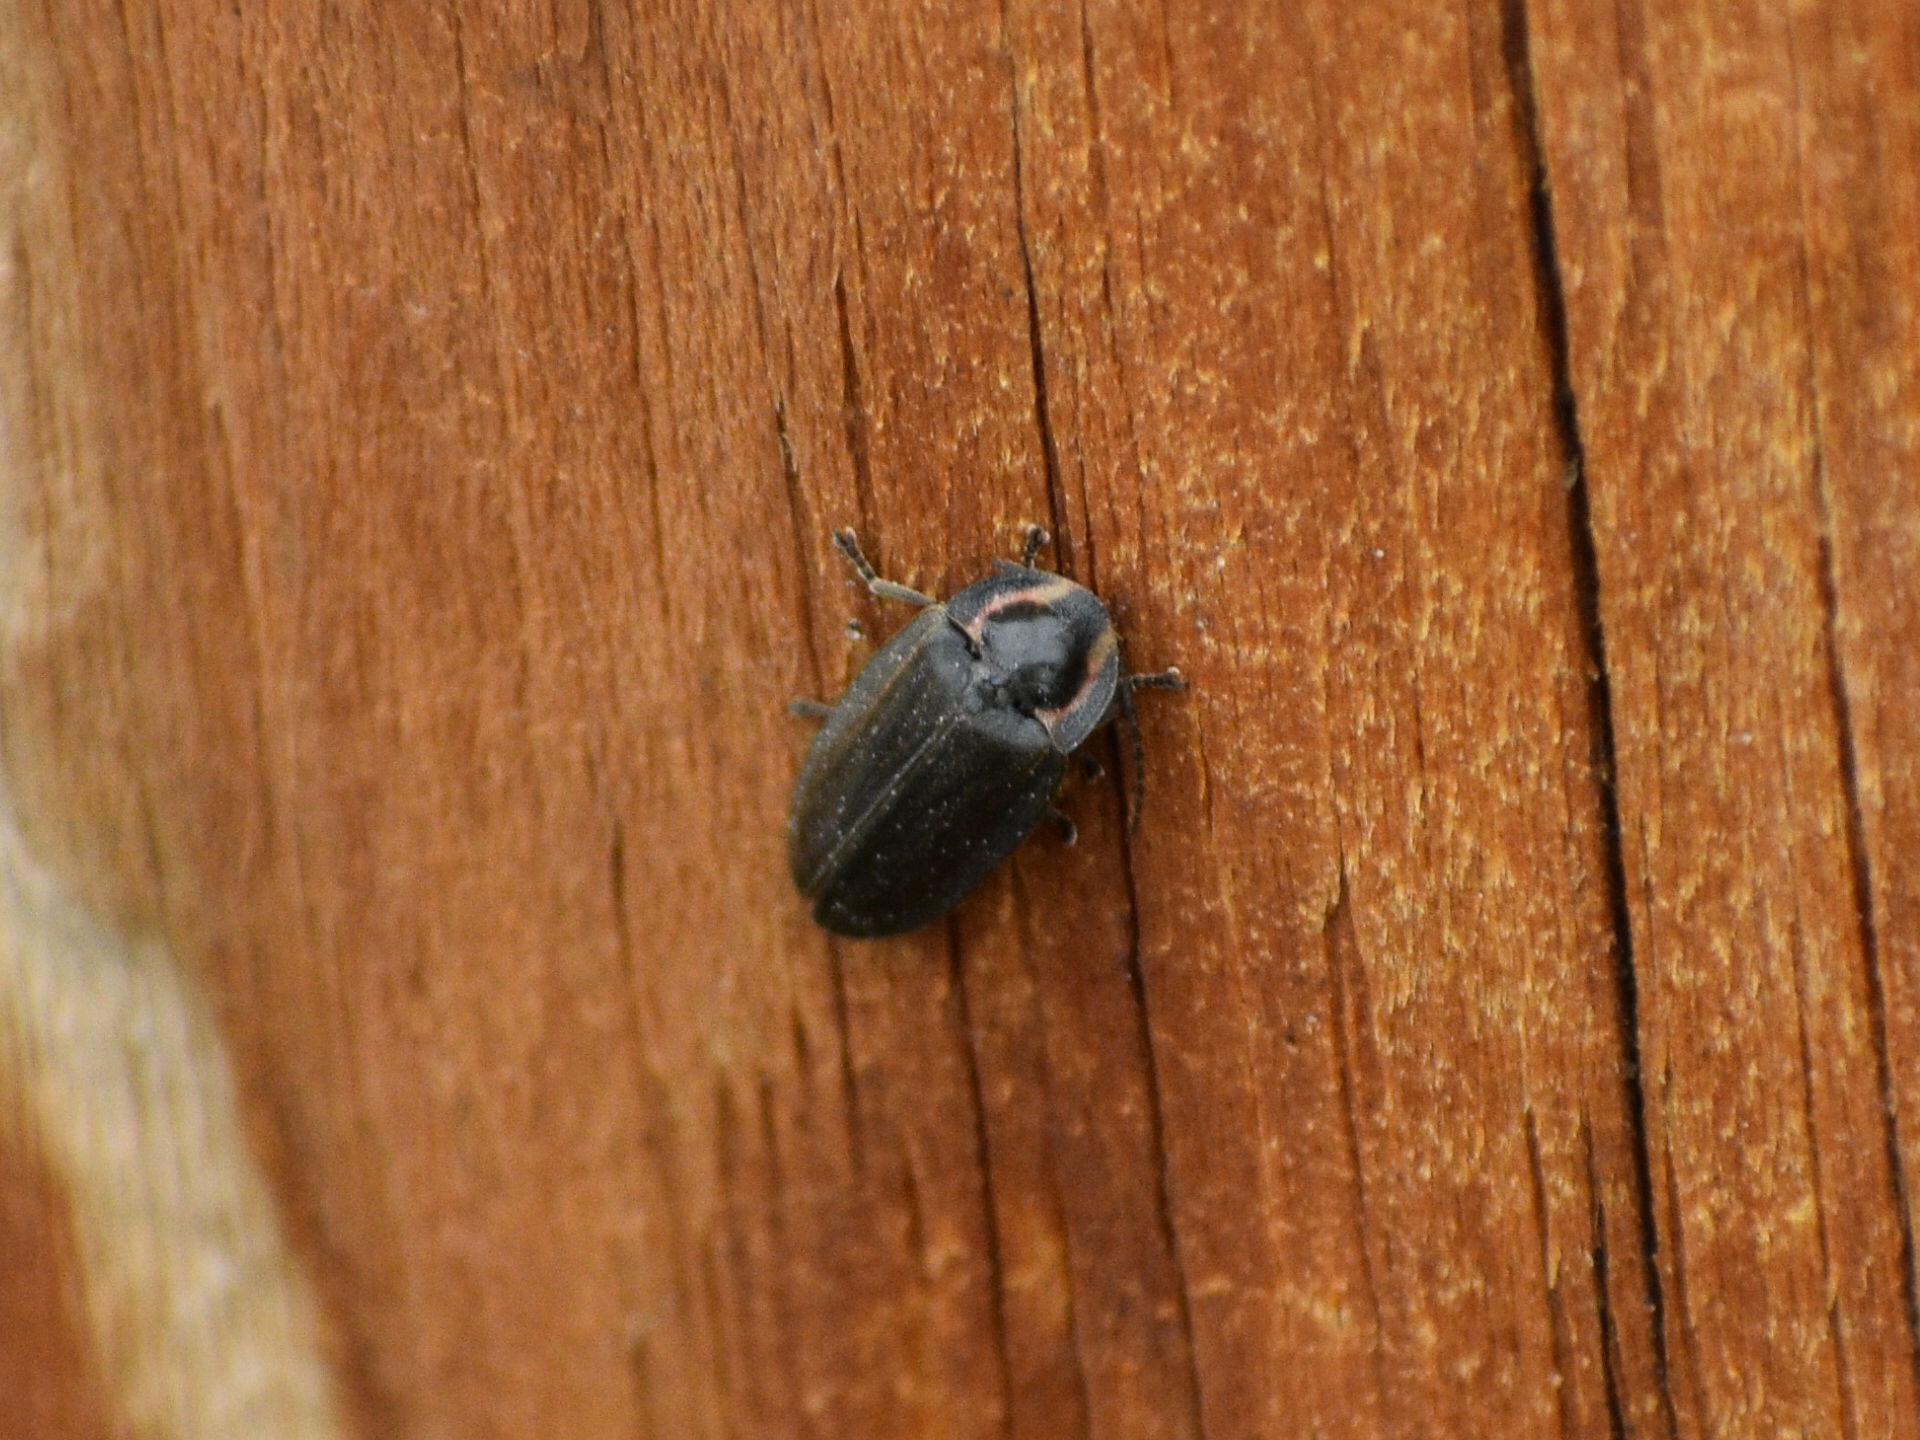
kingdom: Animalia
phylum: Arthropoda
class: Insecta
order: Coleoptera
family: Lampyridae
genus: Photinus
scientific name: Photinus corrusca
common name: Winter firefly
